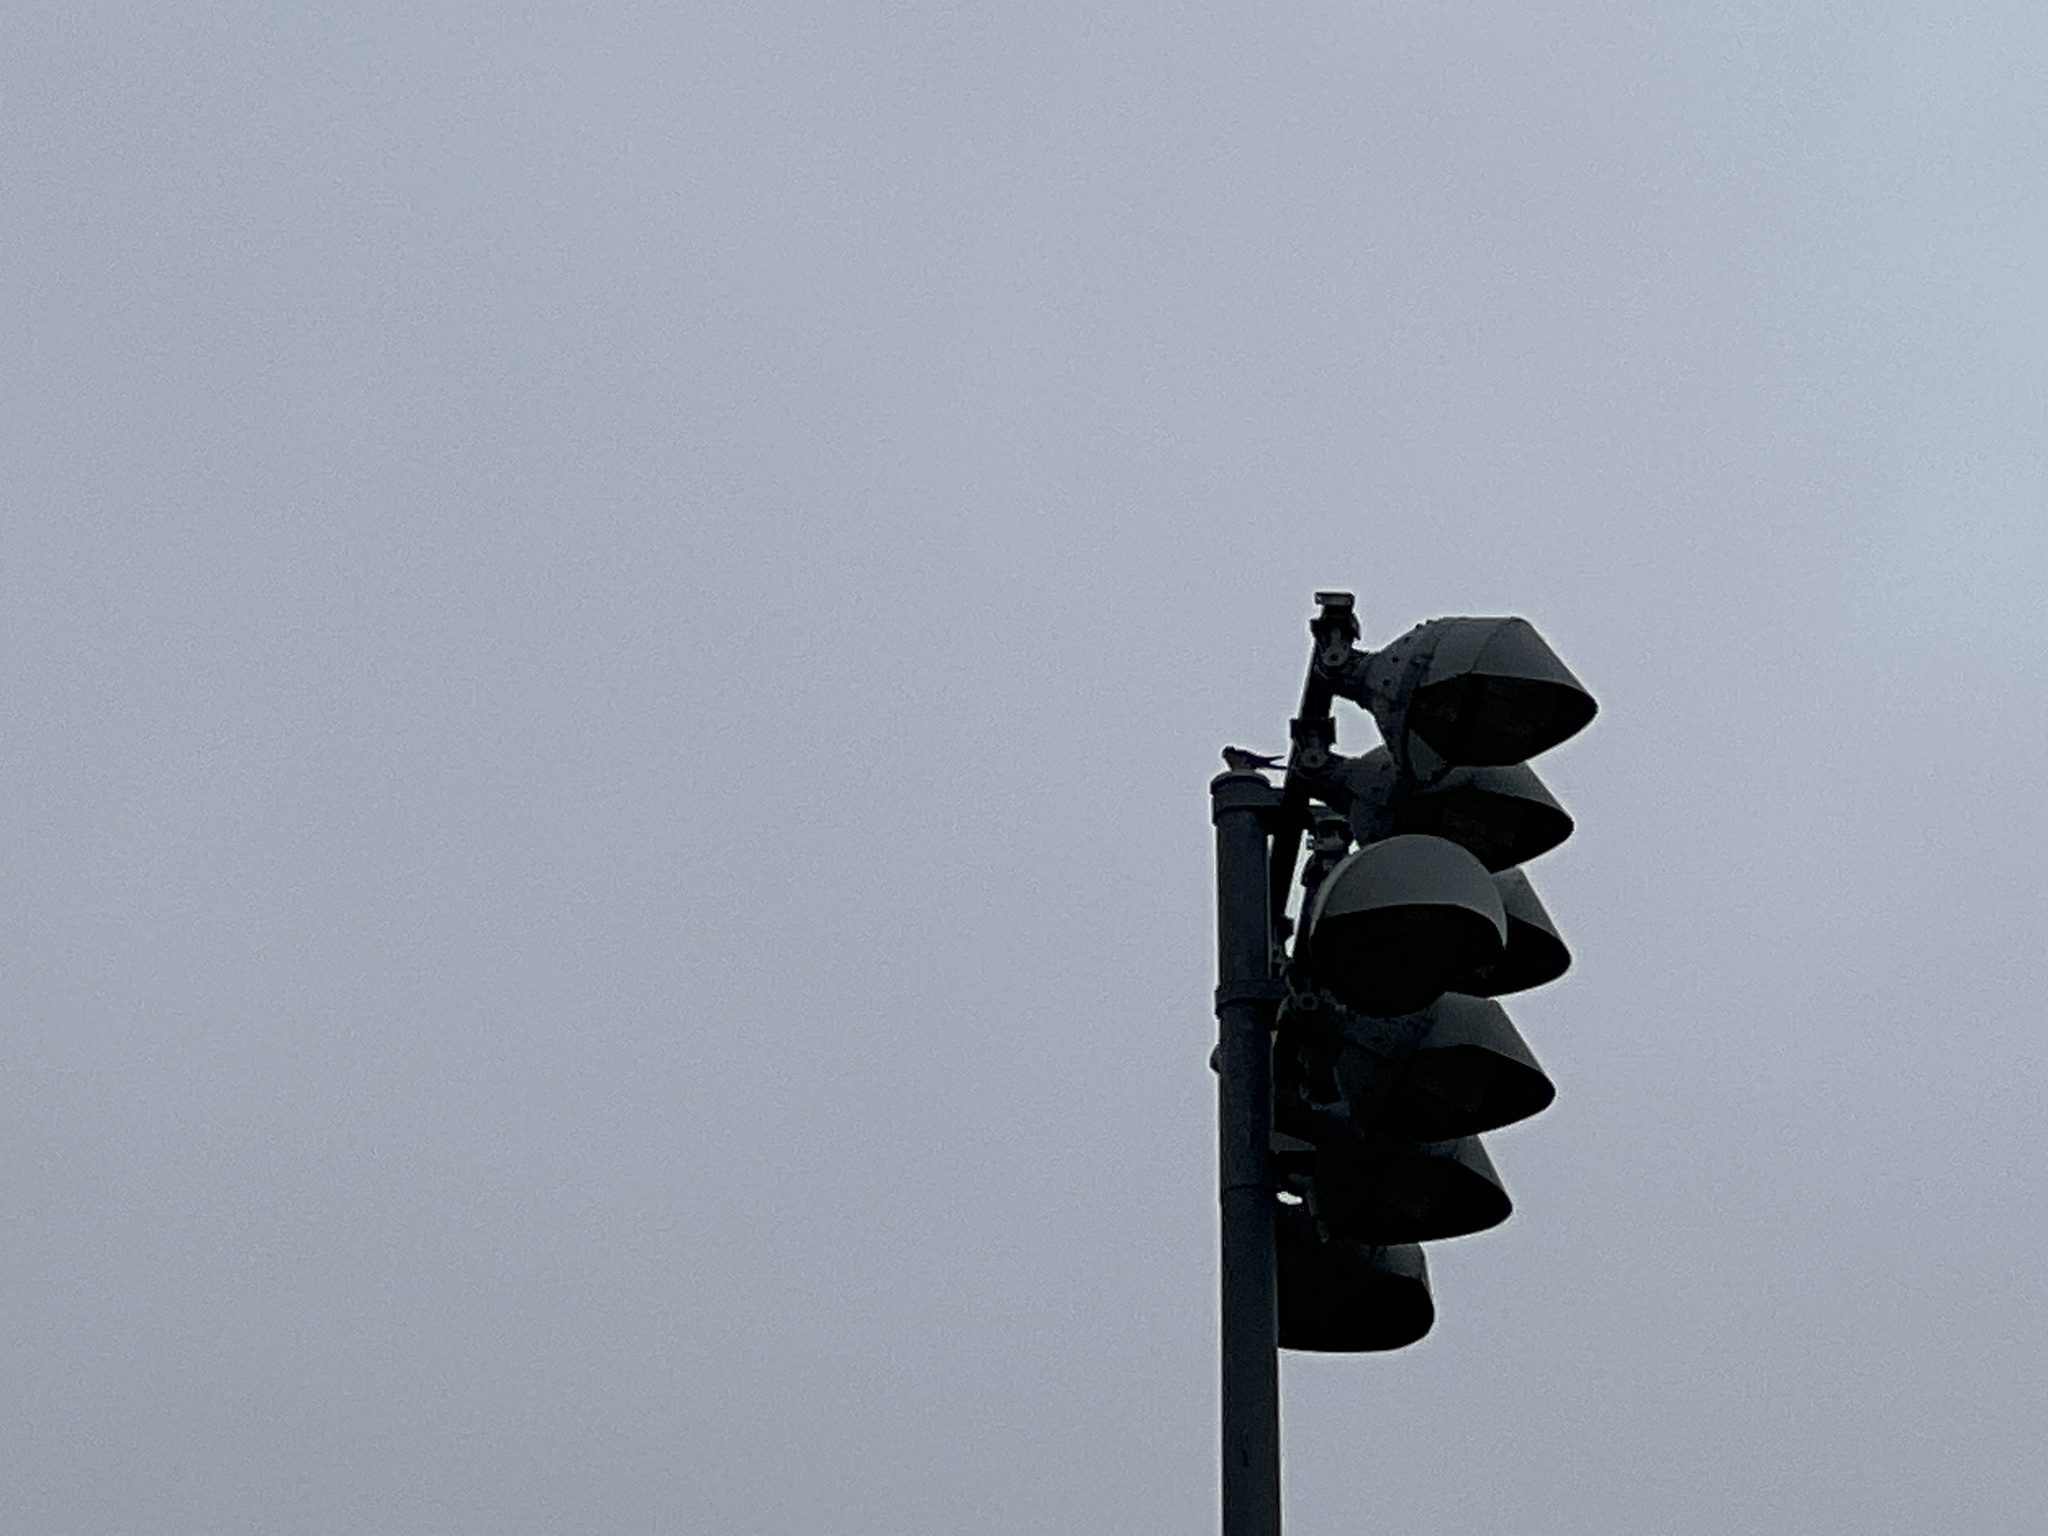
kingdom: Animalia
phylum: Chordata
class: Aves
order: Falconiformes
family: Falconidae
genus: Falco
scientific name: Falco sparverius
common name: American kestrel
